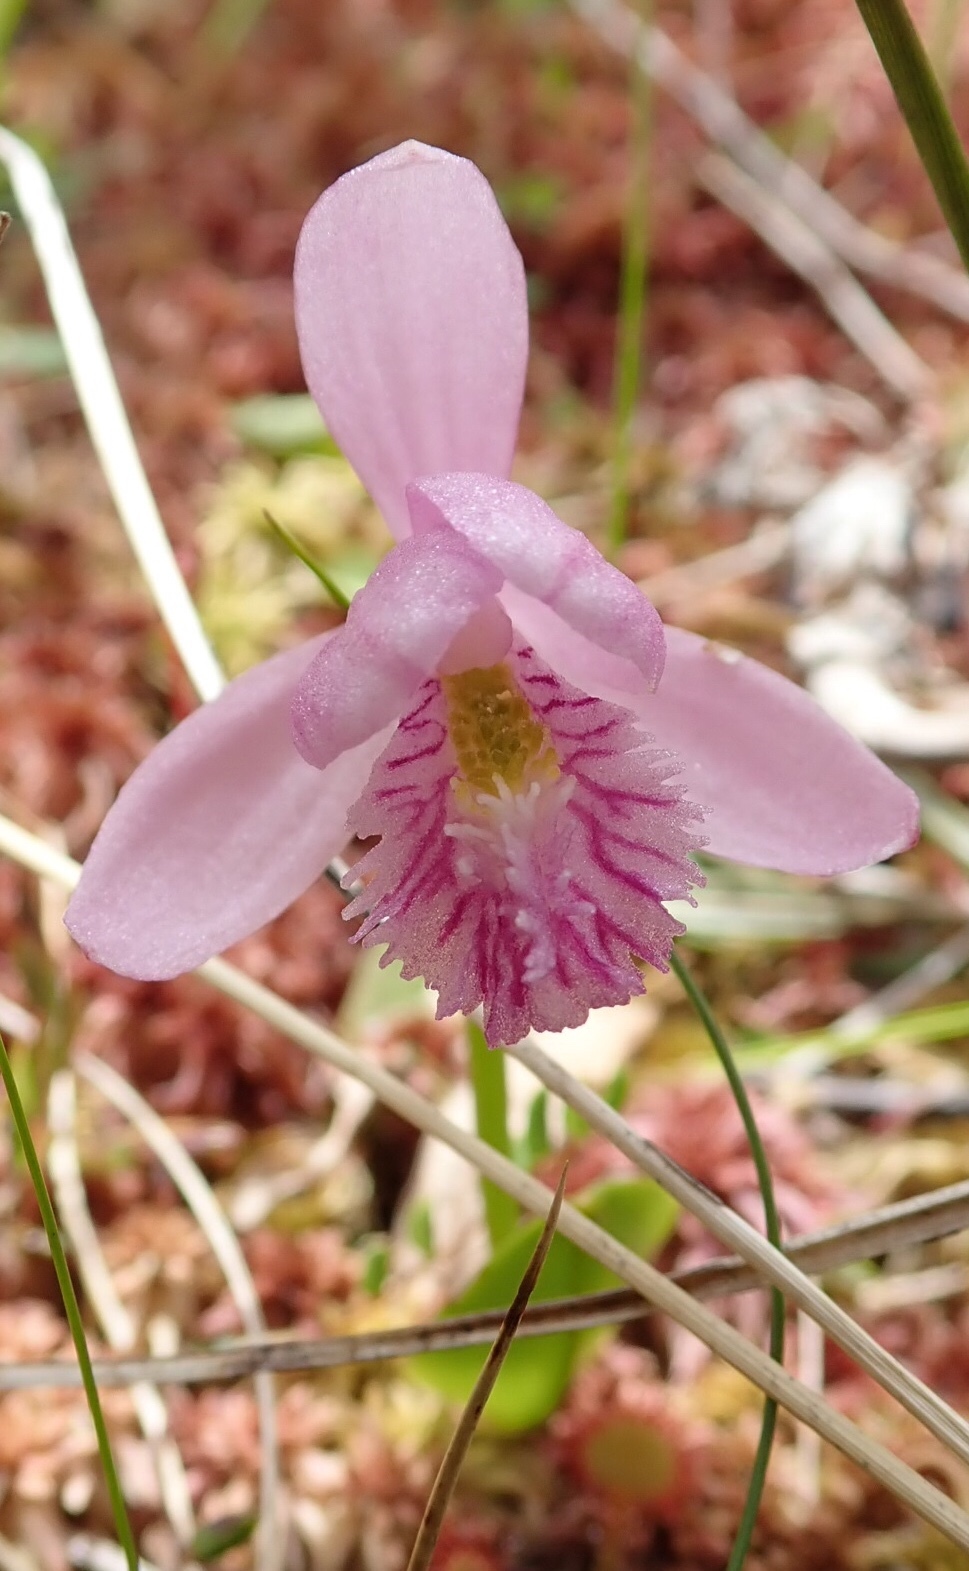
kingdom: Plantae
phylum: Tracheophyta
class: Liliopsida
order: Asparagales
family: Orchidaceae
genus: Pogonia
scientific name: Pogonia ophioglossoides
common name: Rose pogonia
